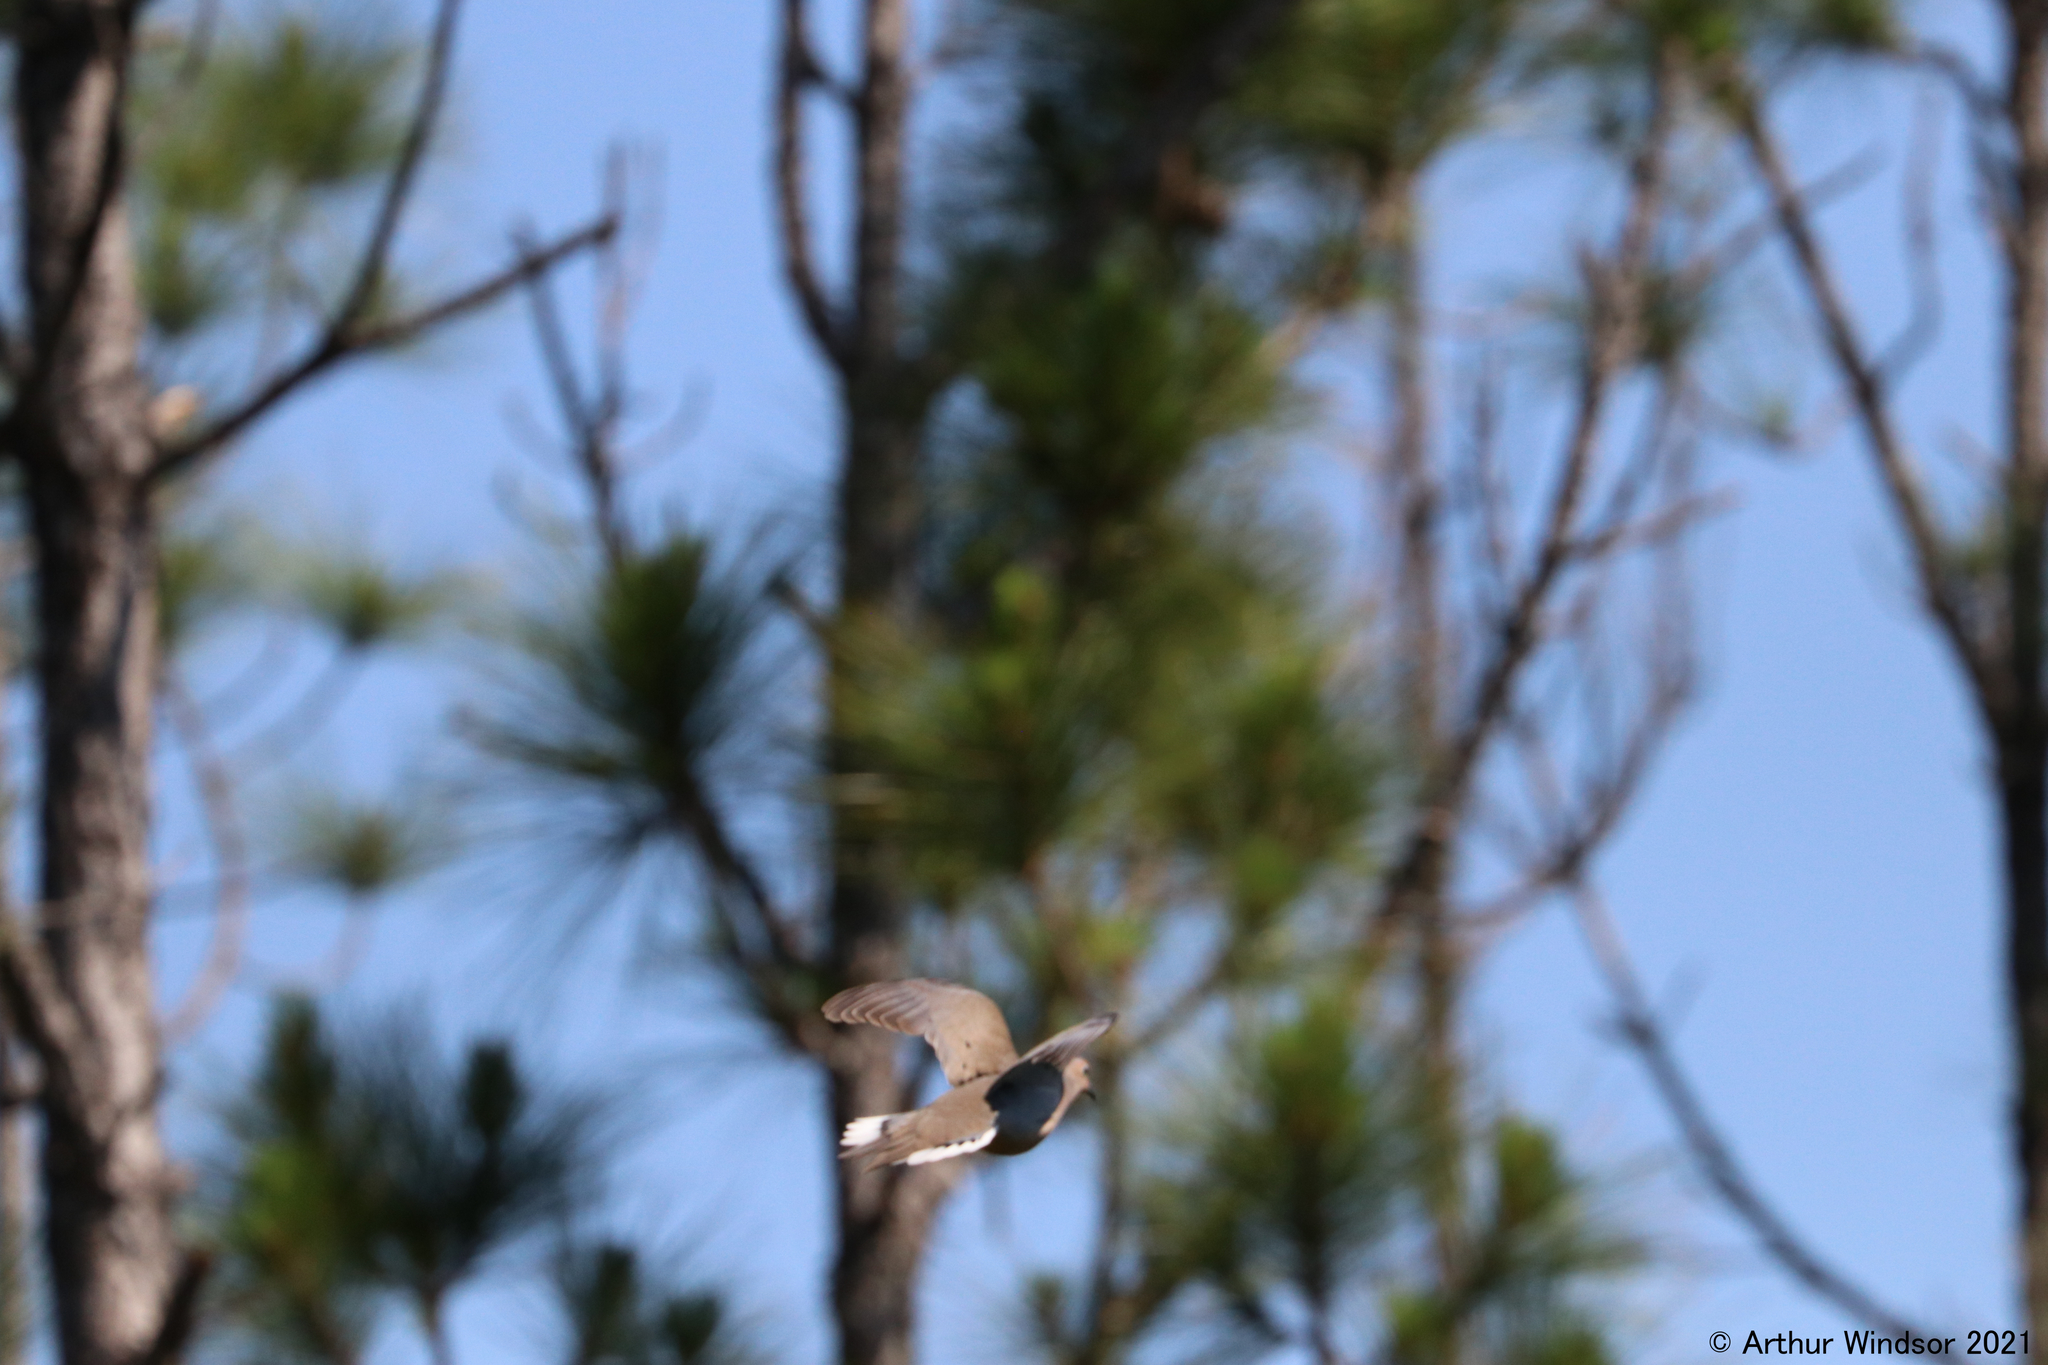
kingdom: Animalia
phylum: Chordata
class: Aves
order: Columbiformes
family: Columbidae
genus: Zenaida
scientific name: Zenaida macroura
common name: Mourning dove
